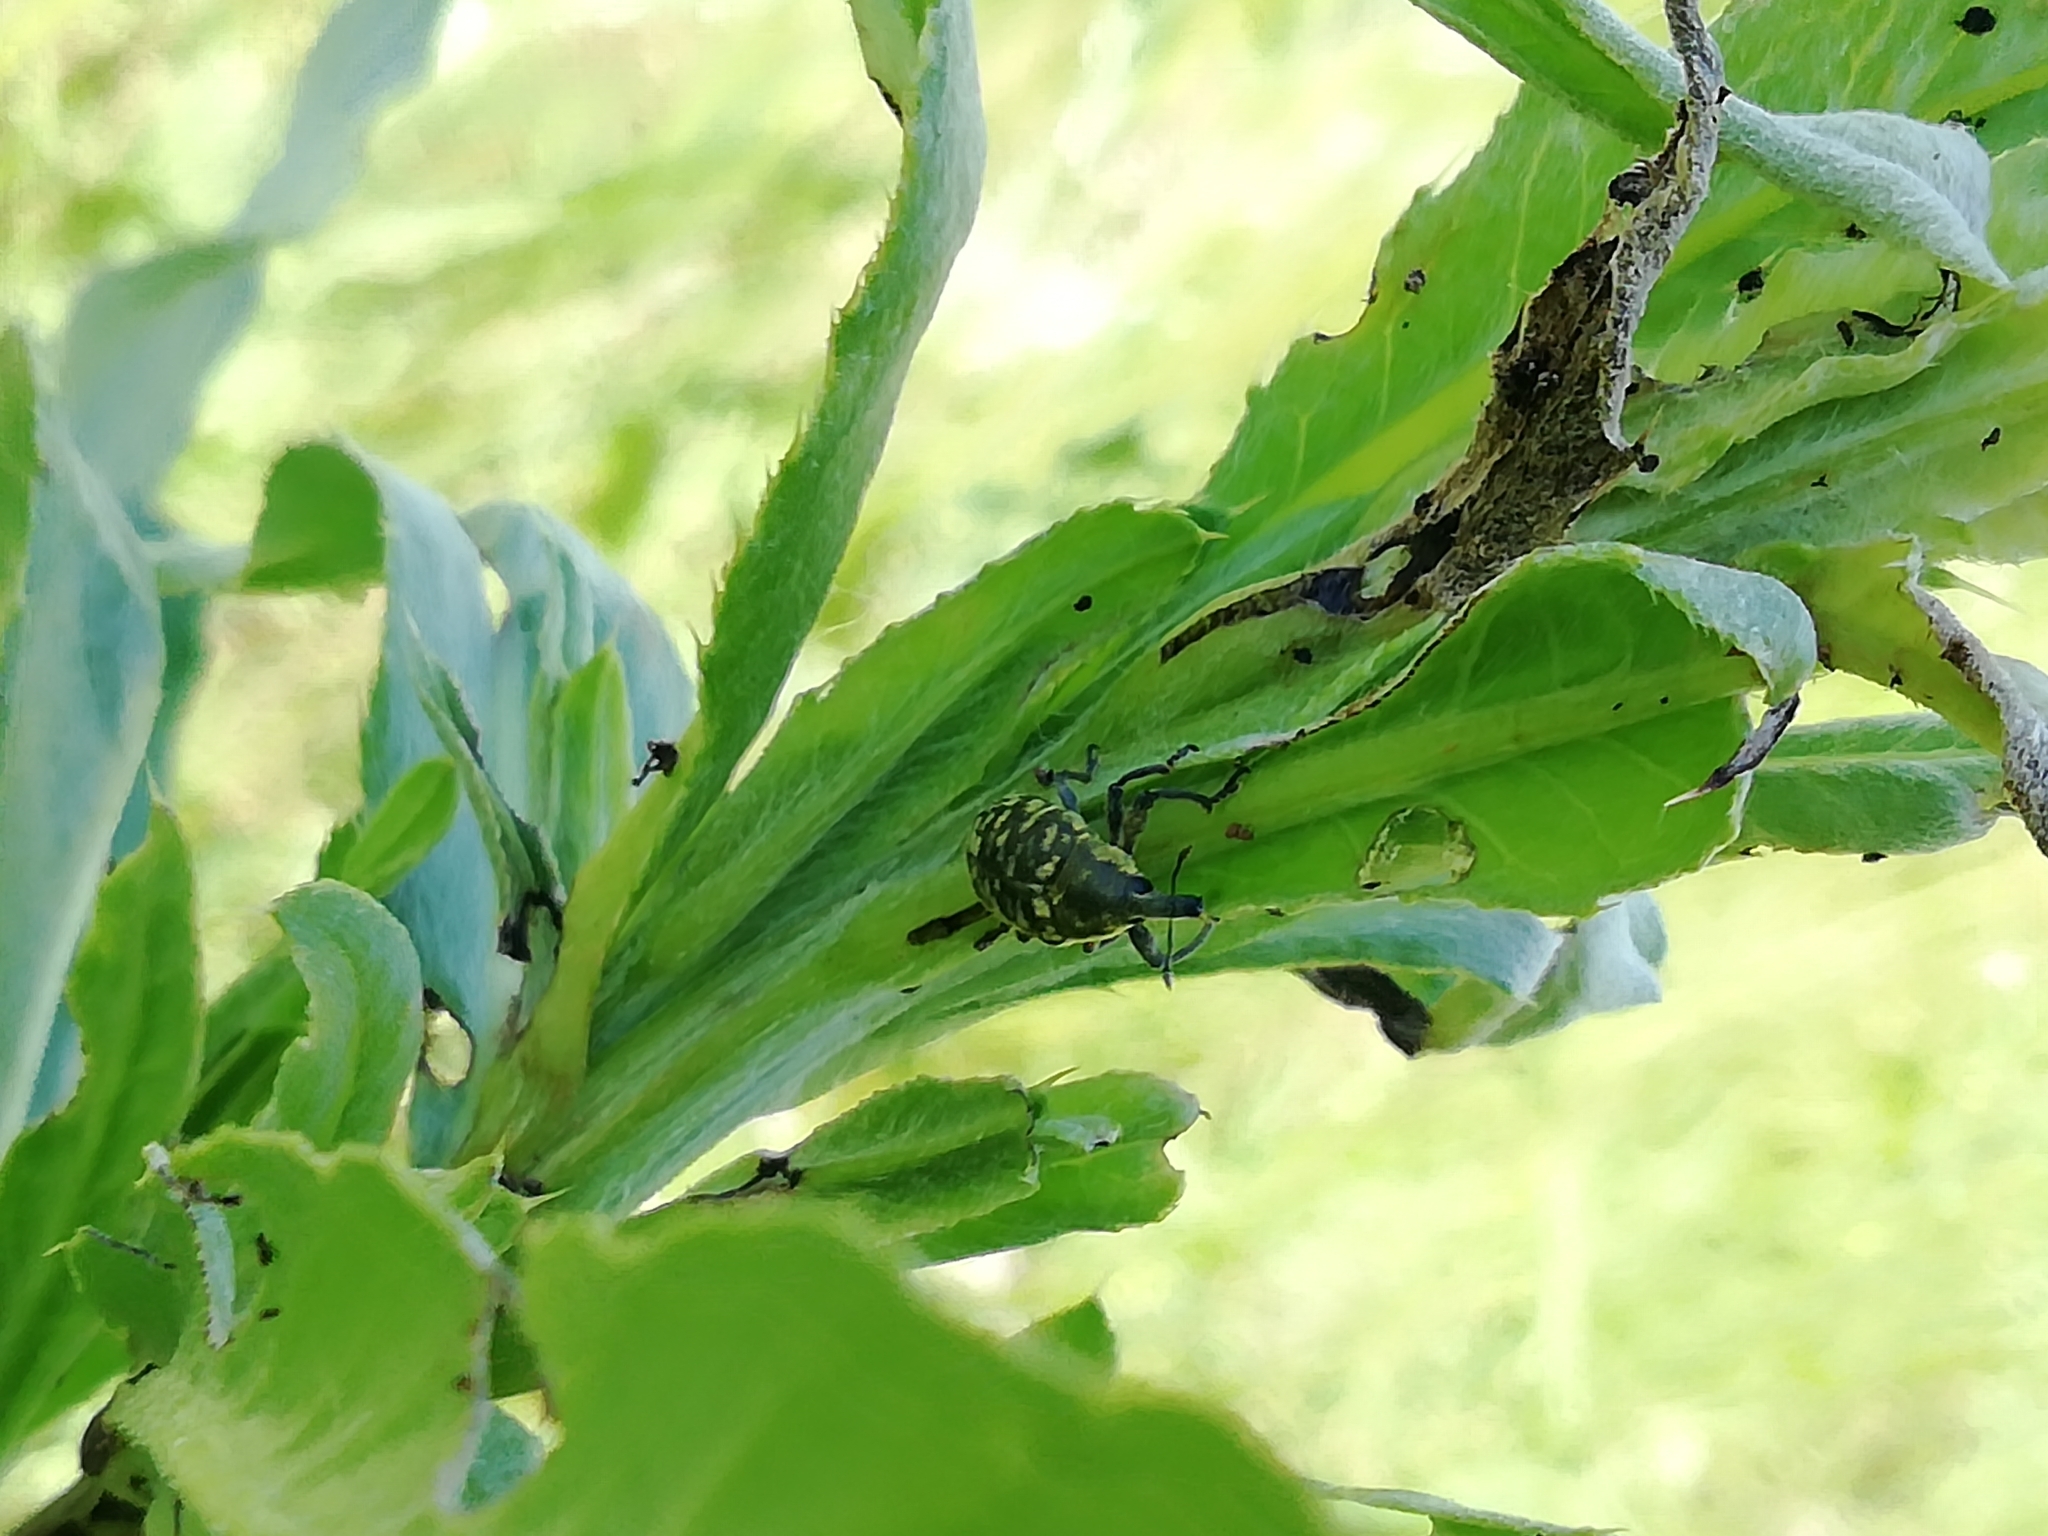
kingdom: Animalia
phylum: Arthropoda
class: Insecta
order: Coleoptera
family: Curculionidae
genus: Larinus
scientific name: Larinus carlinae
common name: Weevil
